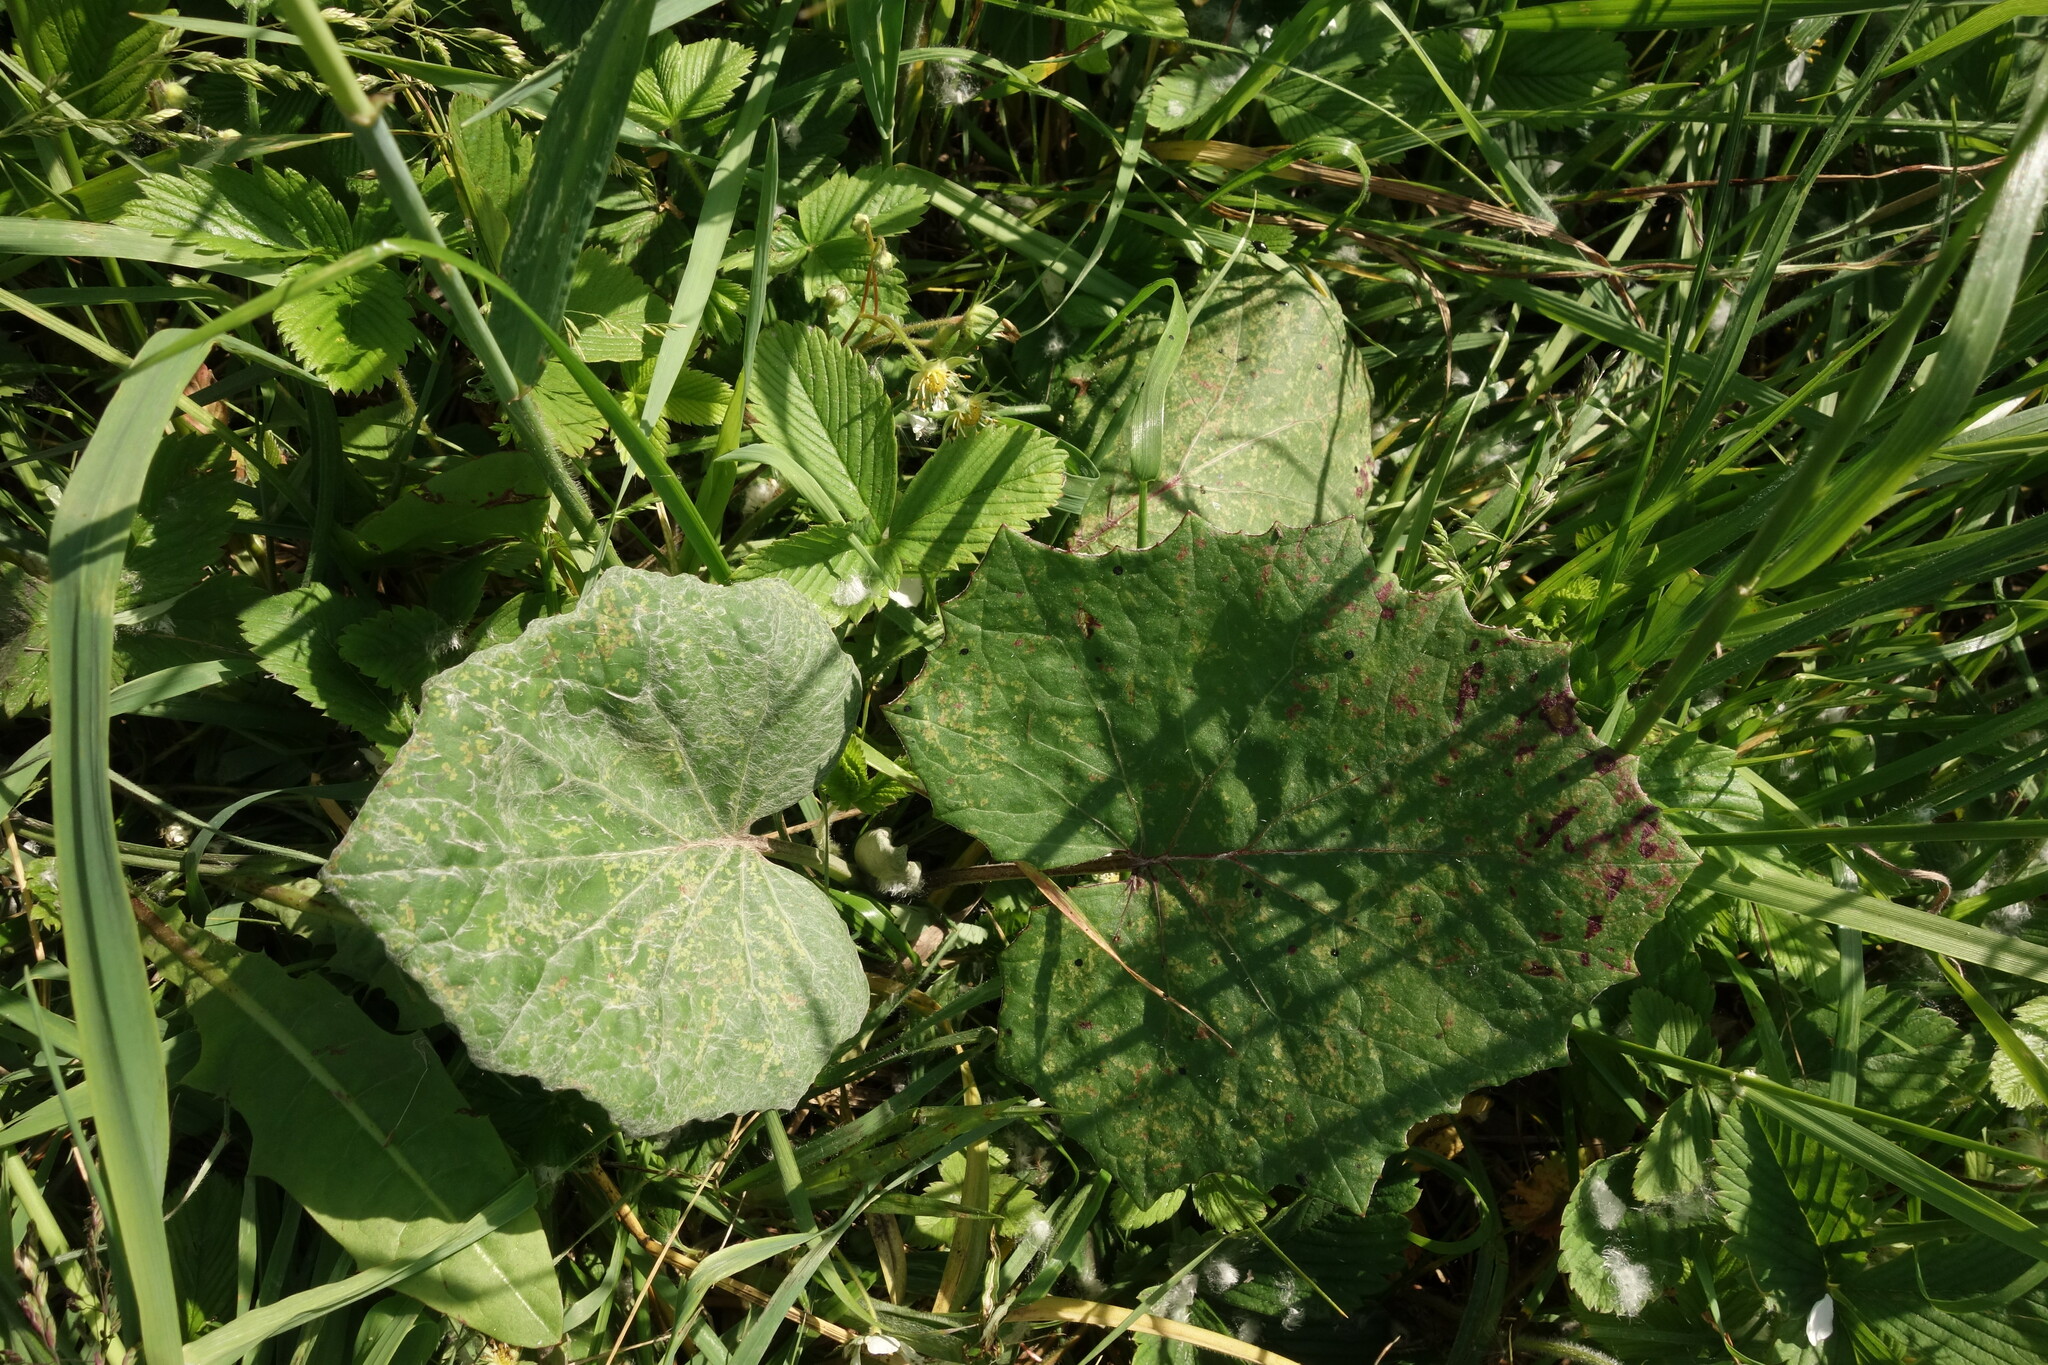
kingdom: Plantae
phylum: Tracheophyta
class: Magnoliopsida
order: Asterales
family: Asteraceae
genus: Tussilago
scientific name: Tussilago farfara
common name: Coltsfoot
